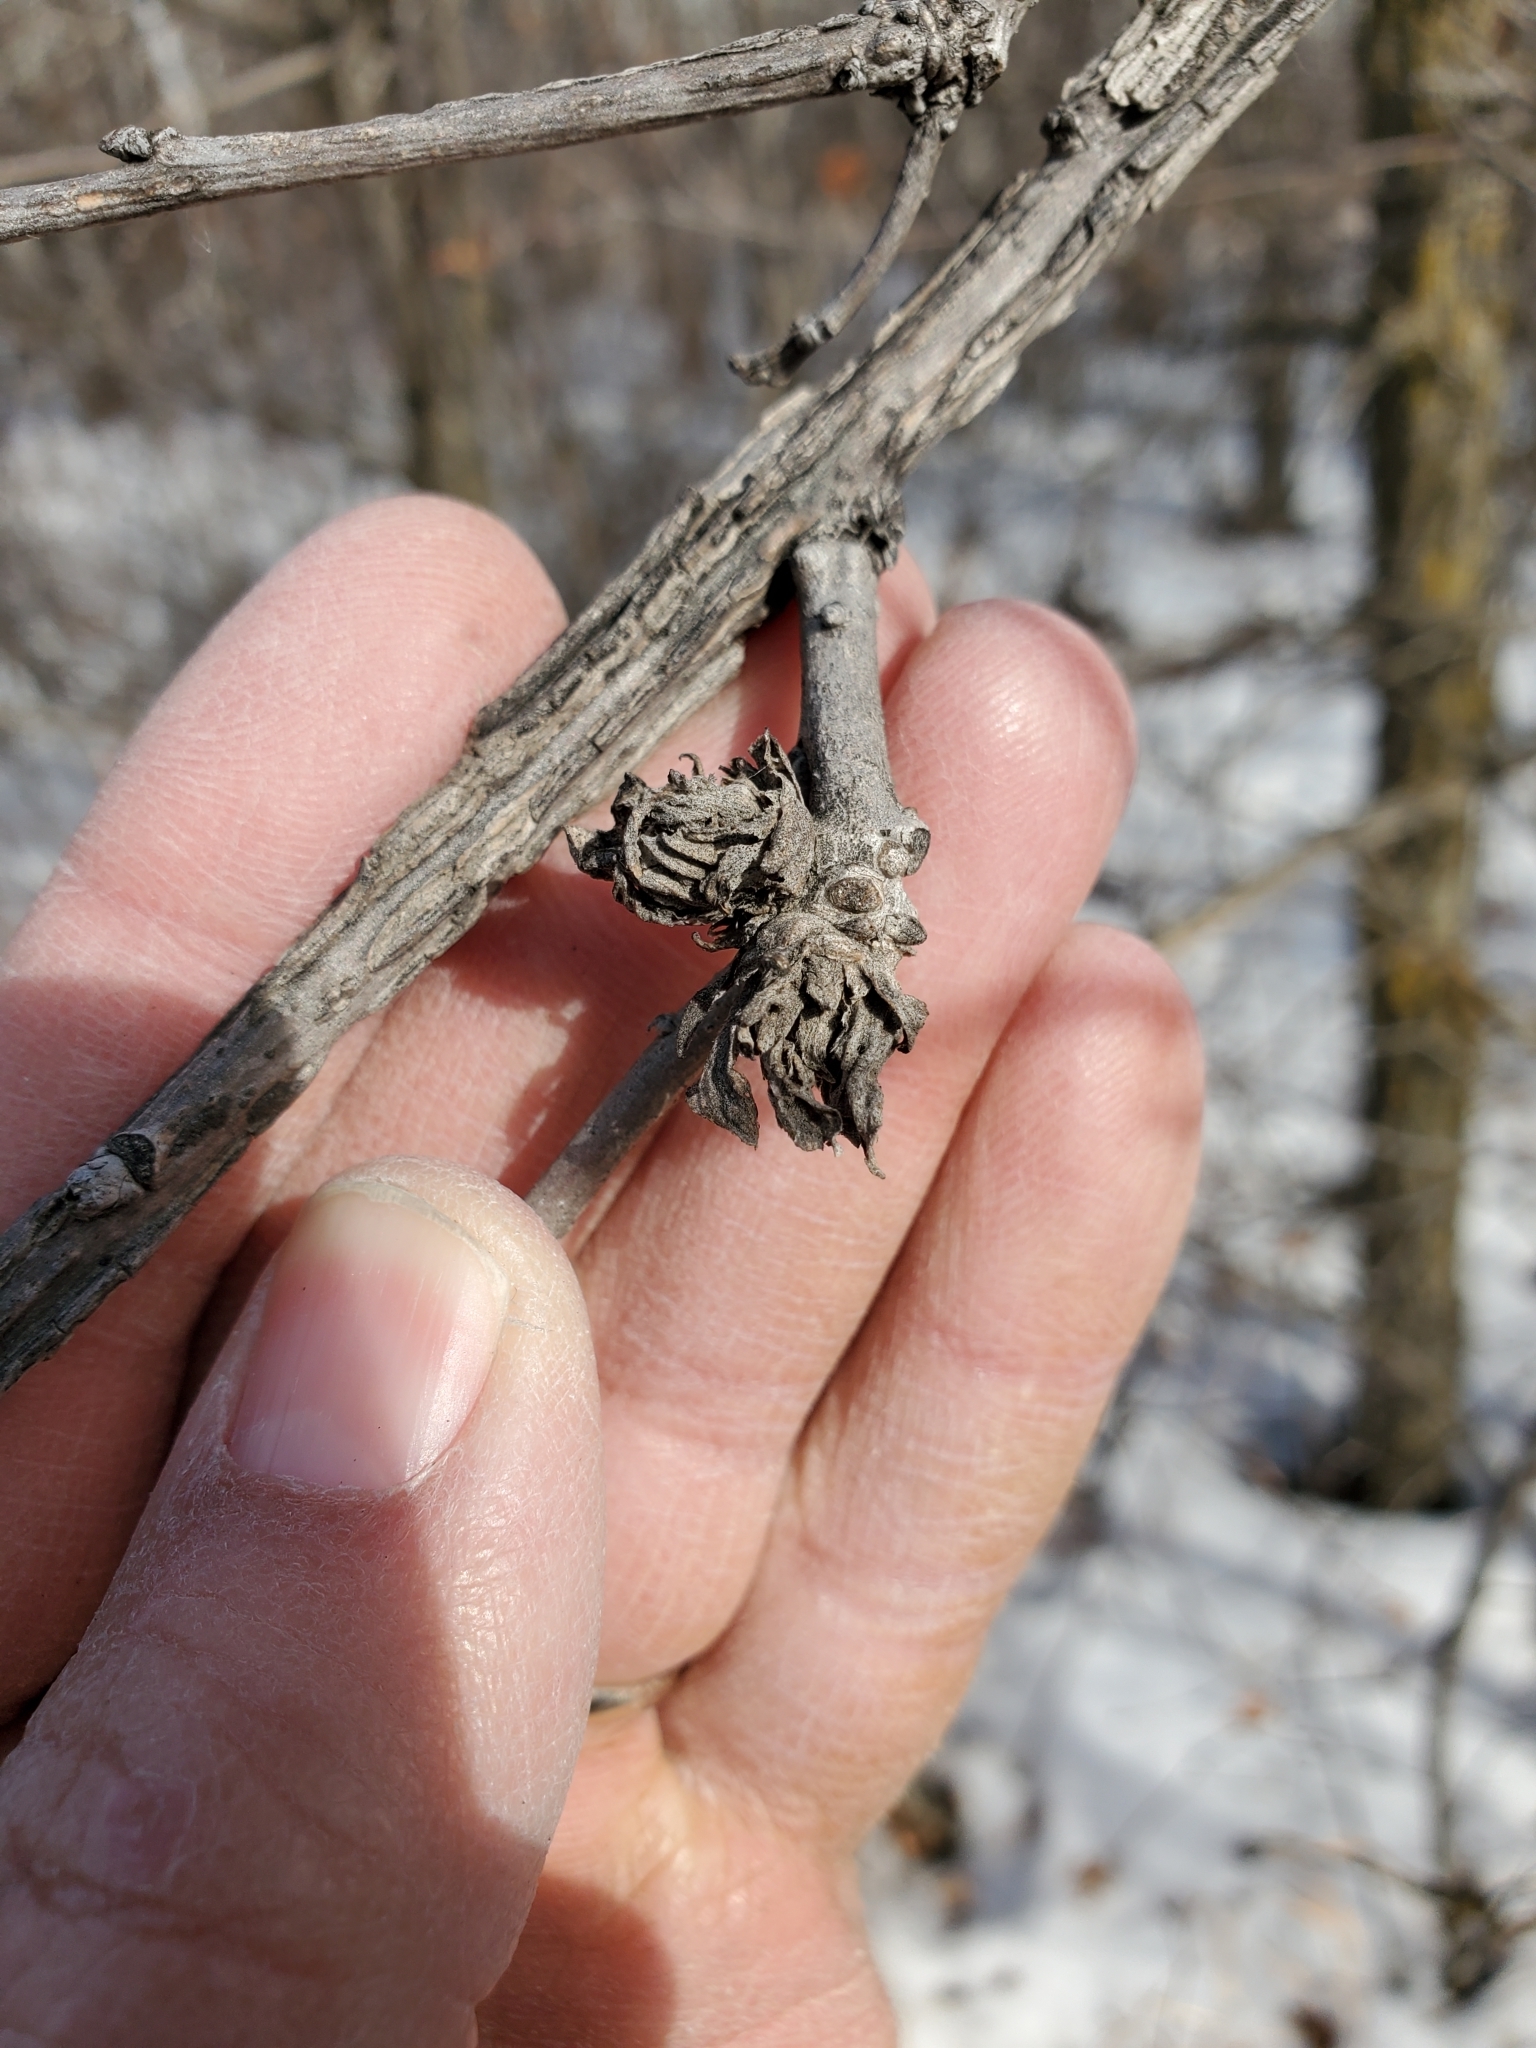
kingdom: Animalia
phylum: Arthropoda
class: Insecta
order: Hymenoptera
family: Cynipidae
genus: Andricus
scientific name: Andricus
